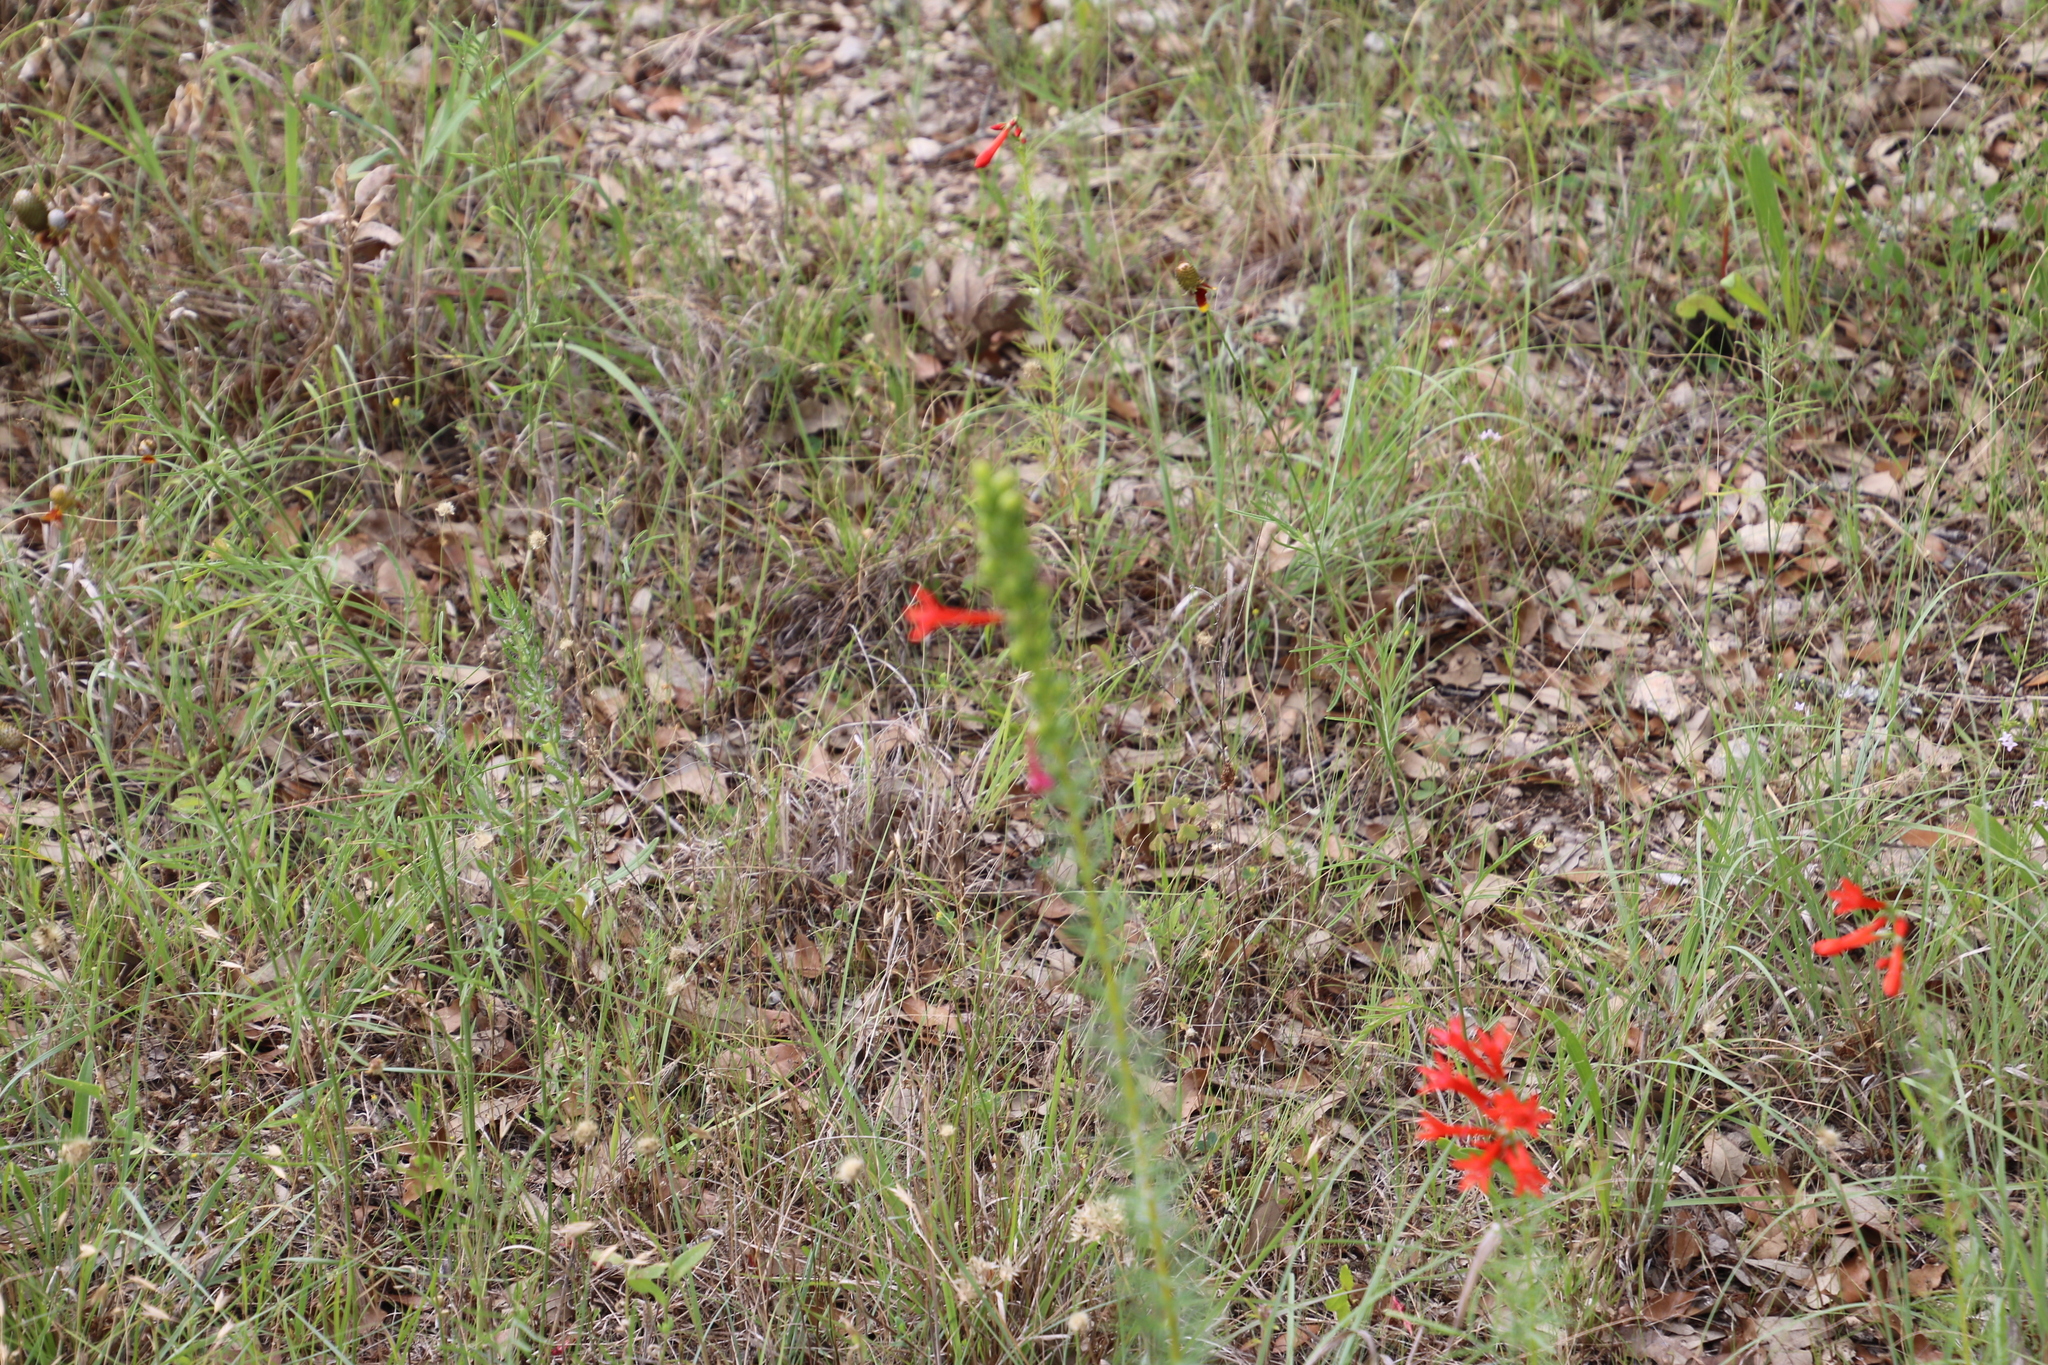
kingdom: Plantae
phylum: Tracheophyta
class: Magnoliopsida
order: Ericales
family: Polemoniaceae
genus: Ipomopsis
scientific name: Ipomopsis rubra
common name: Skyrocket
